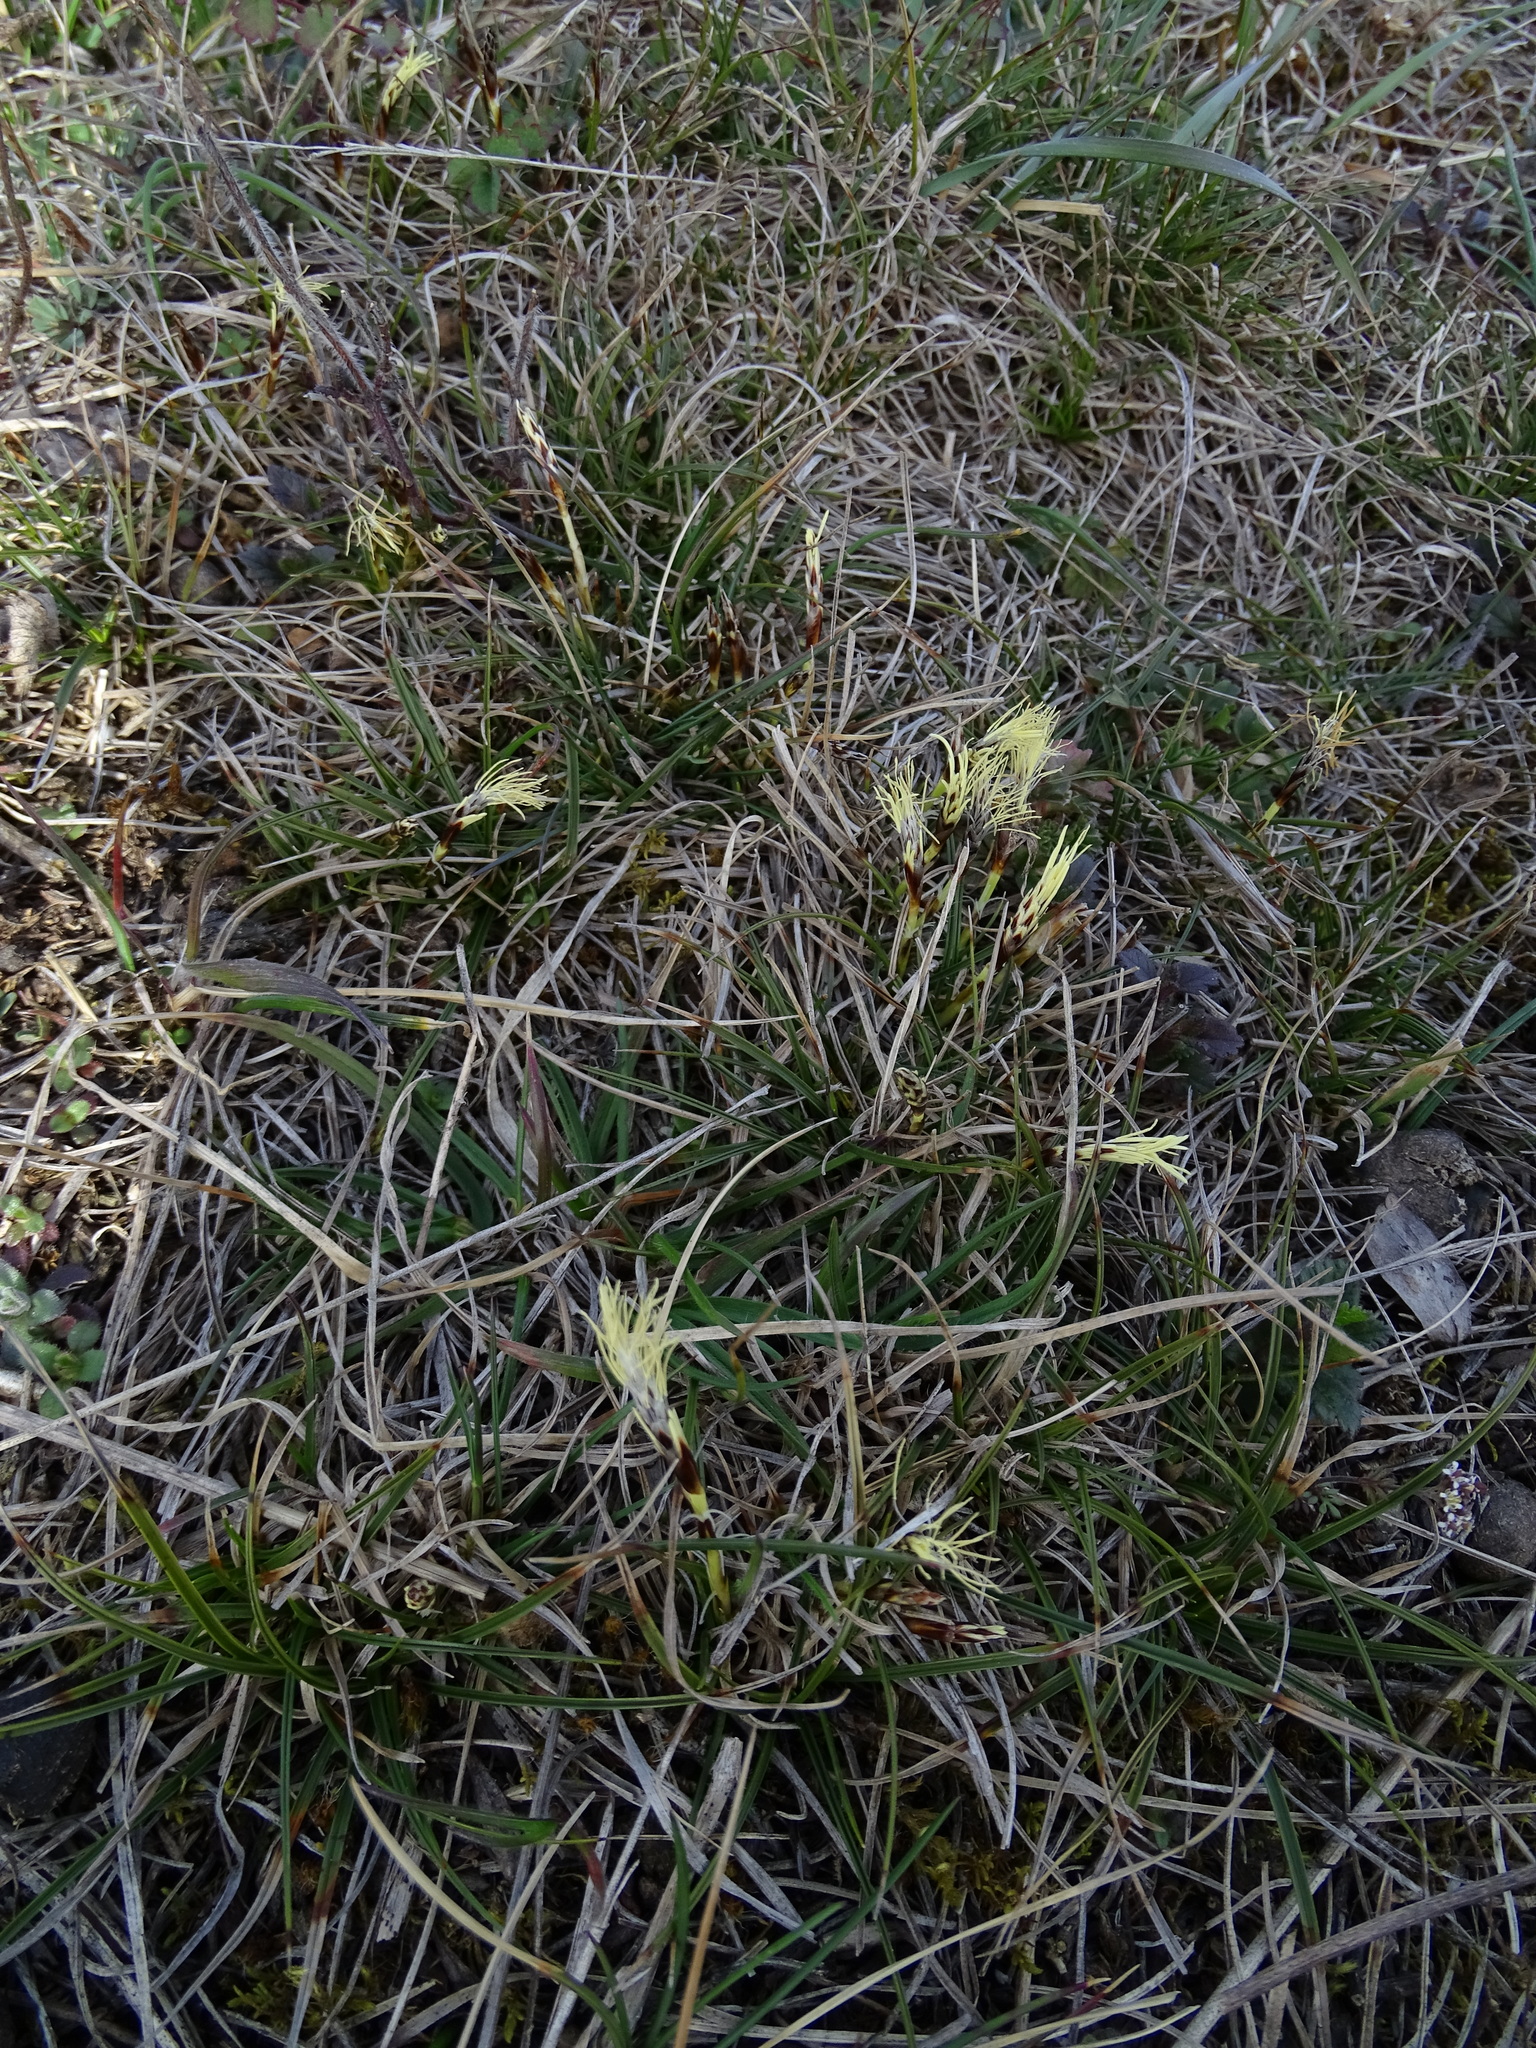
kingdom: Plantae
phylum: Tracheophyta
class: Liliopsida
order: Poales
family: Cyperaceae
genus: Carex
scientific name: Carex humilis
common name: Dwarf sedge
